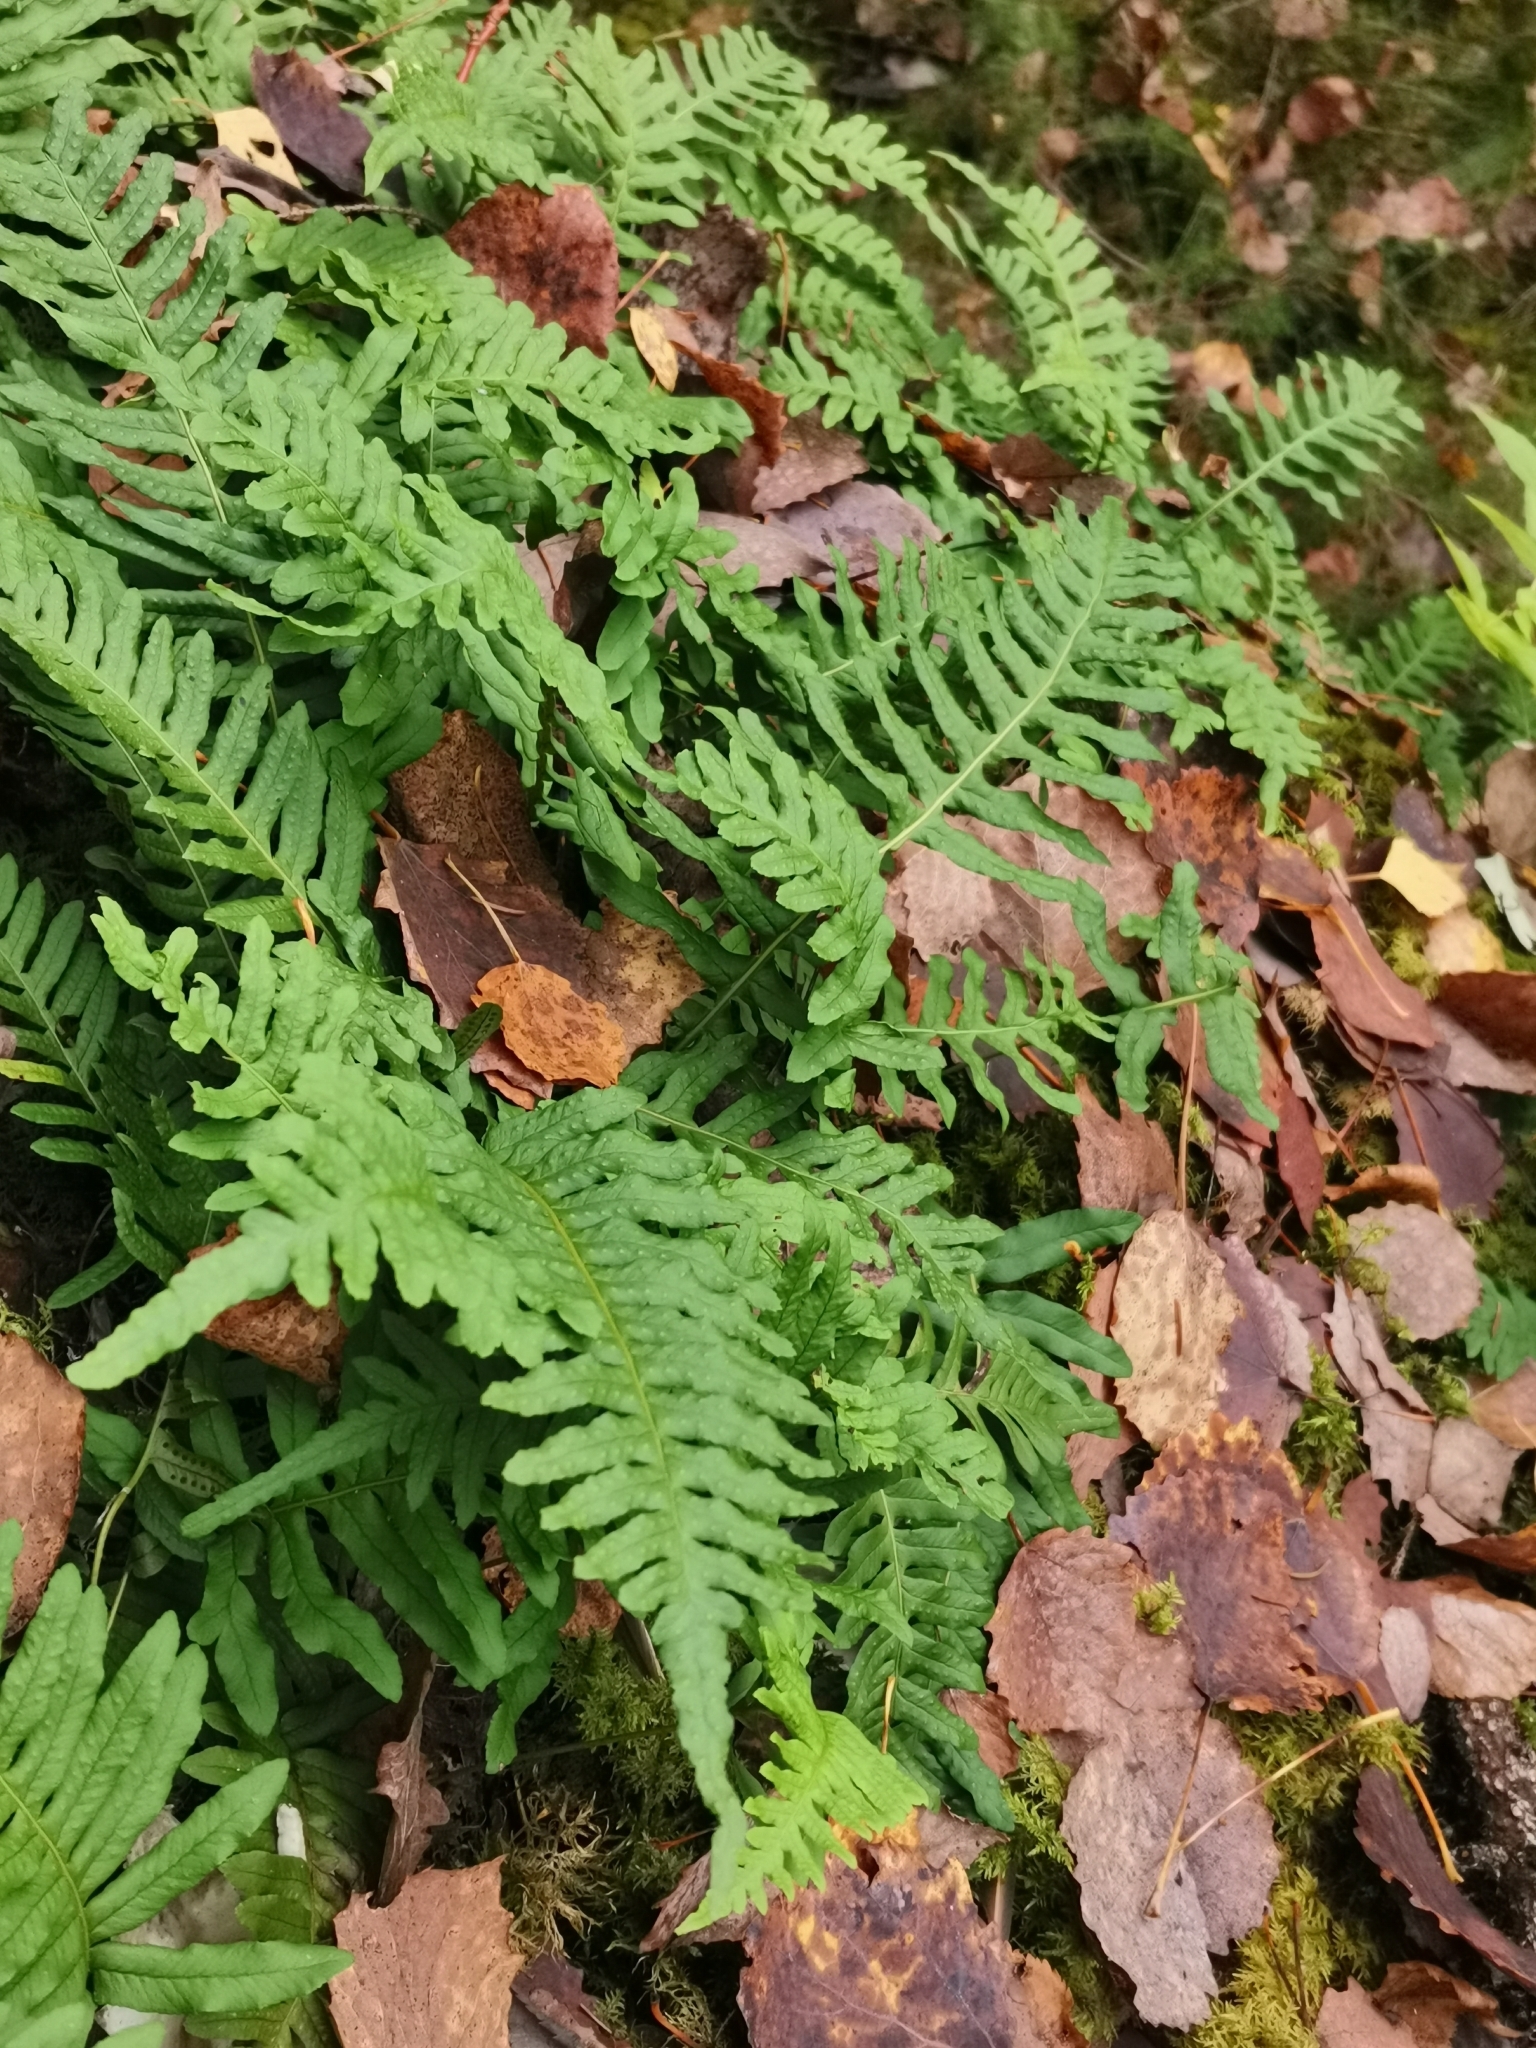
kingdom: Plantae
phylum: Tracheophyta
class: Polypodiopsida
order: Polypodiales
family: Polypodiaceae
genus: Polypodium
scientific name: Polypodium vulgare
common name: Common polypody
